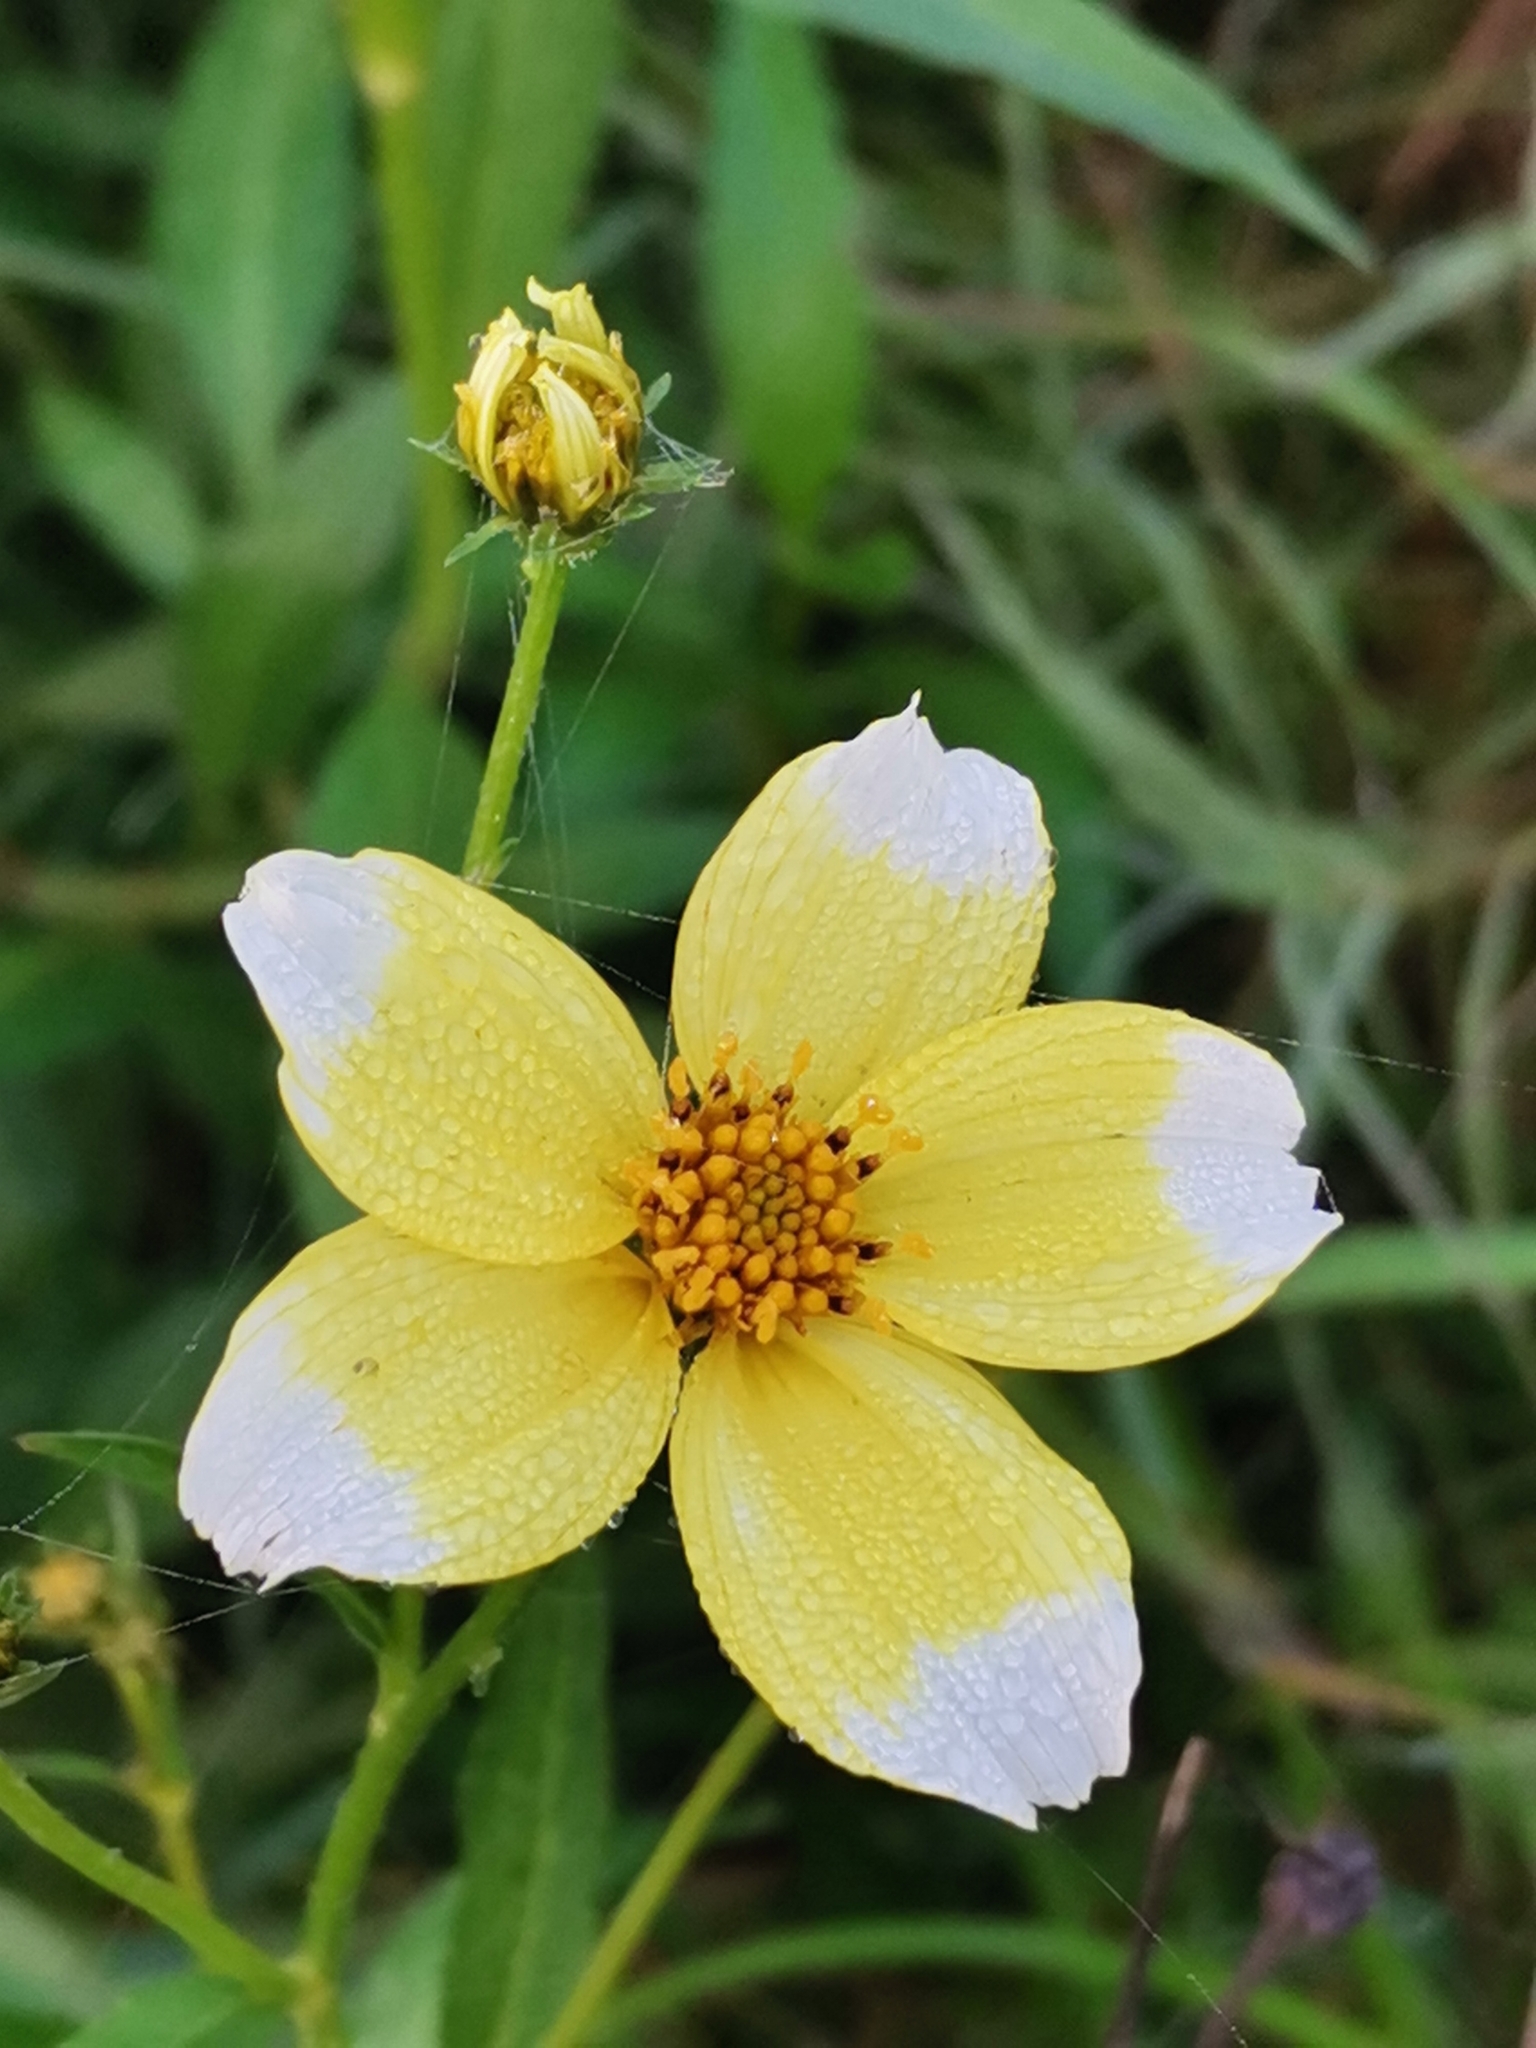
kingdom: Plantae
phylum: Tracheophyta
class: Magnoliopsida
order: Asterales
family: Asteraceae
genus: Bidens
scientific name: Bidens aurea
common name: Arizona beggar-ticks
